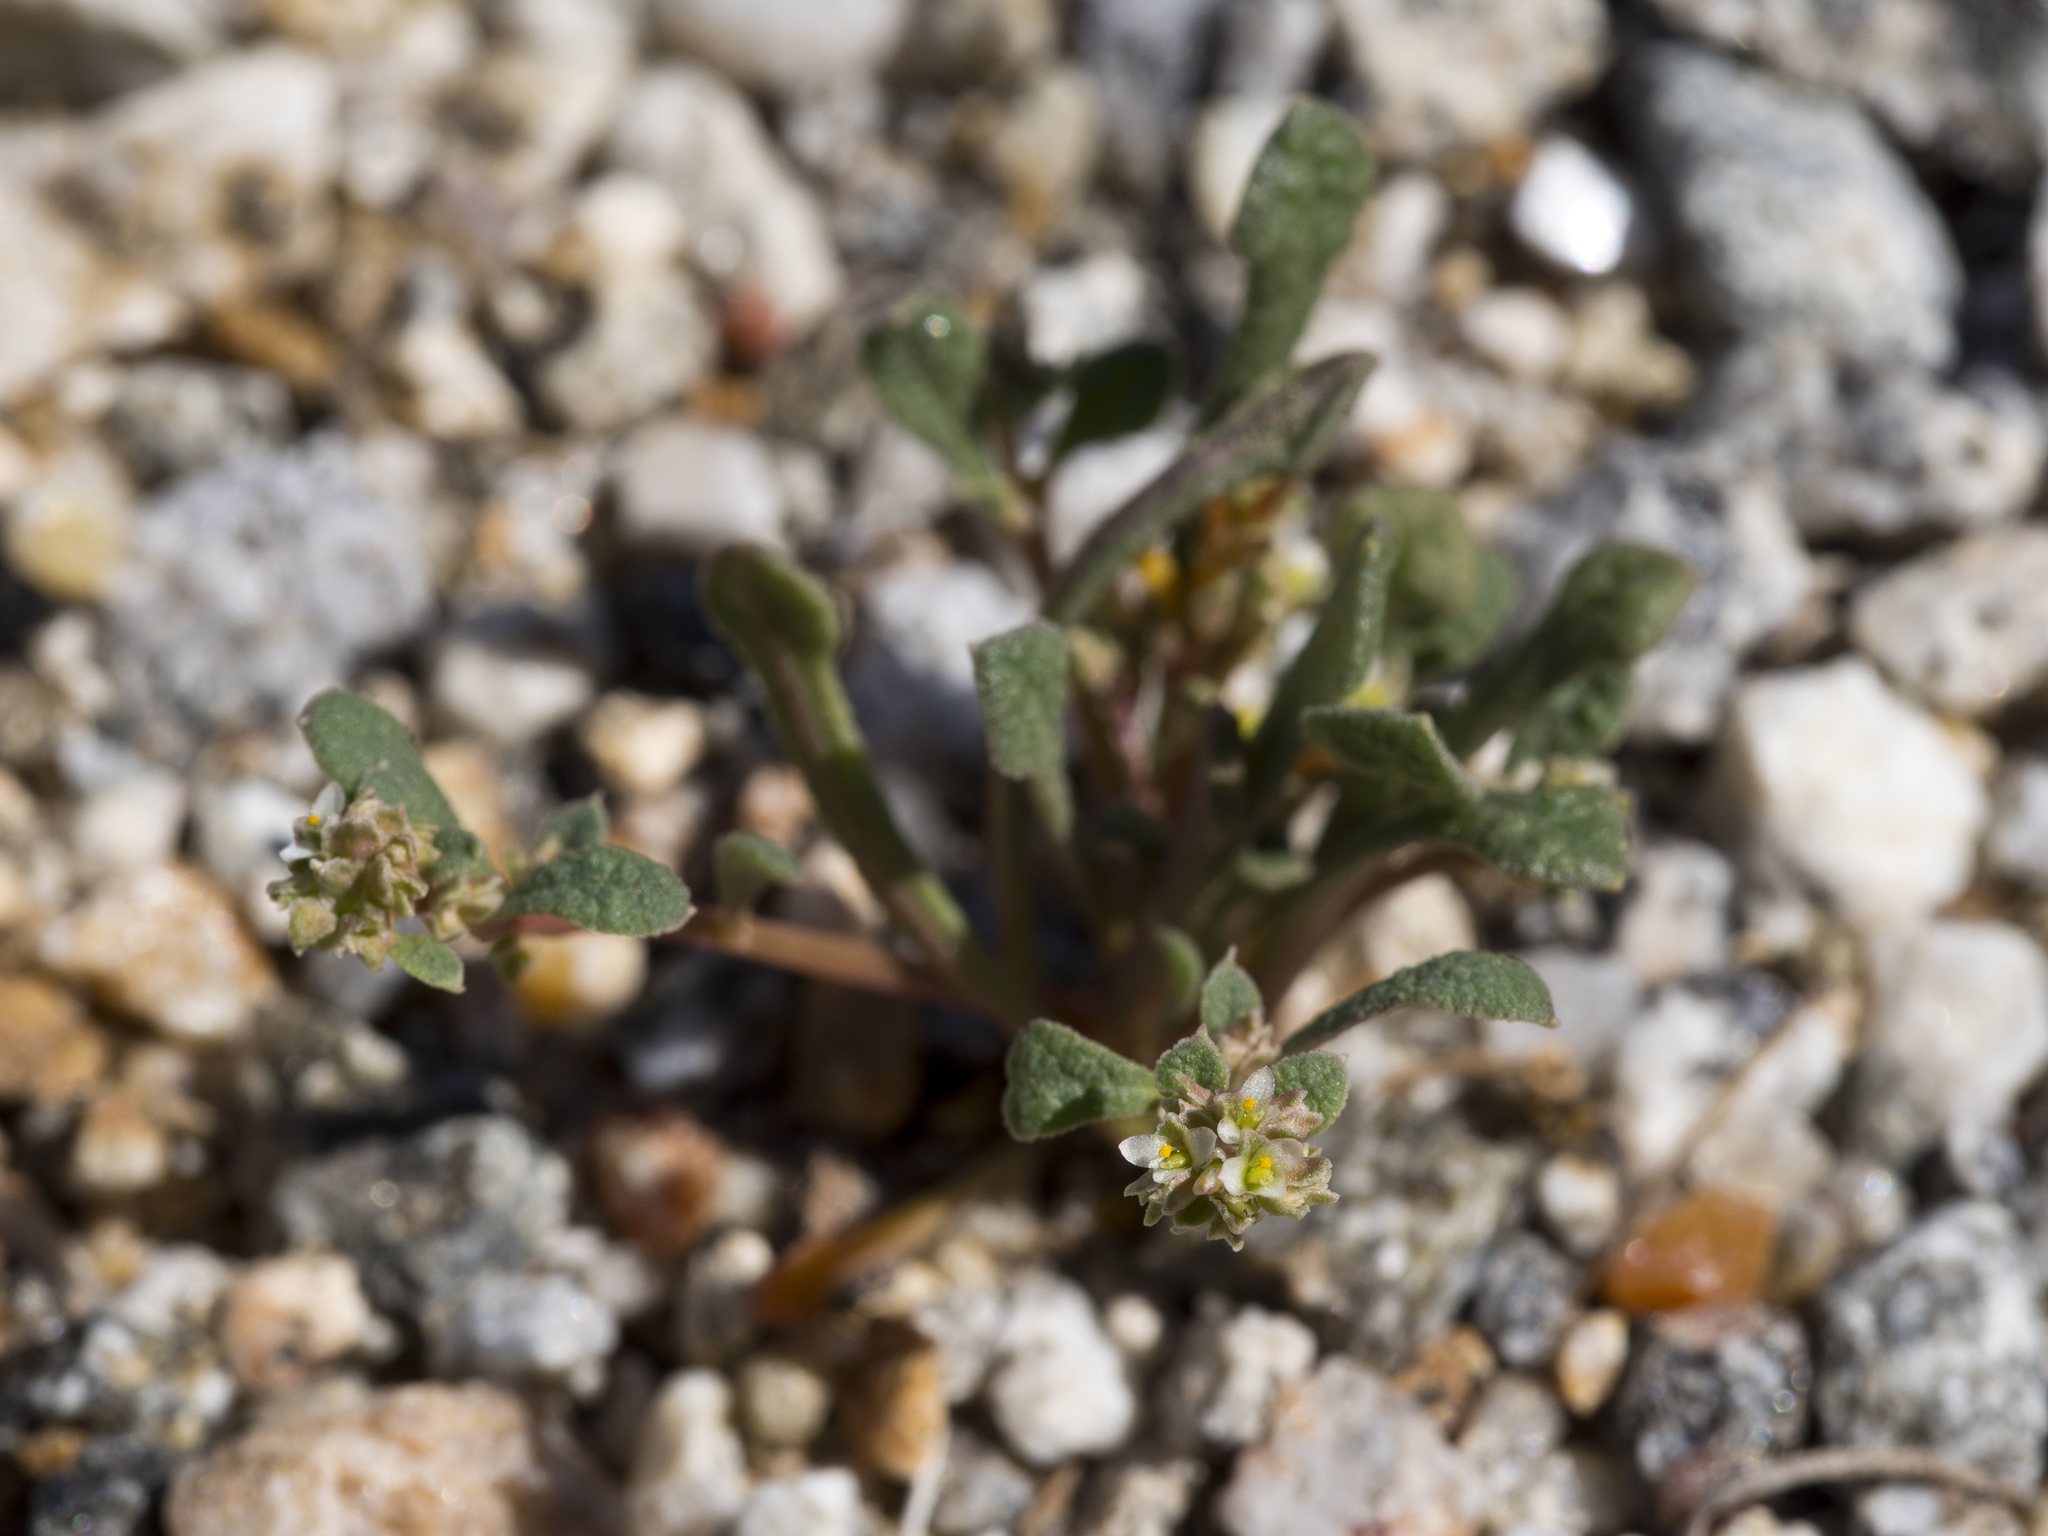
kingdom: Plantae
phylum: Tracheophyta
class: Magnoliopsida
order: Caryophyllales
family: Montiaceae
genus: Calyptridium
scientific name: Calyptridium monandrum
